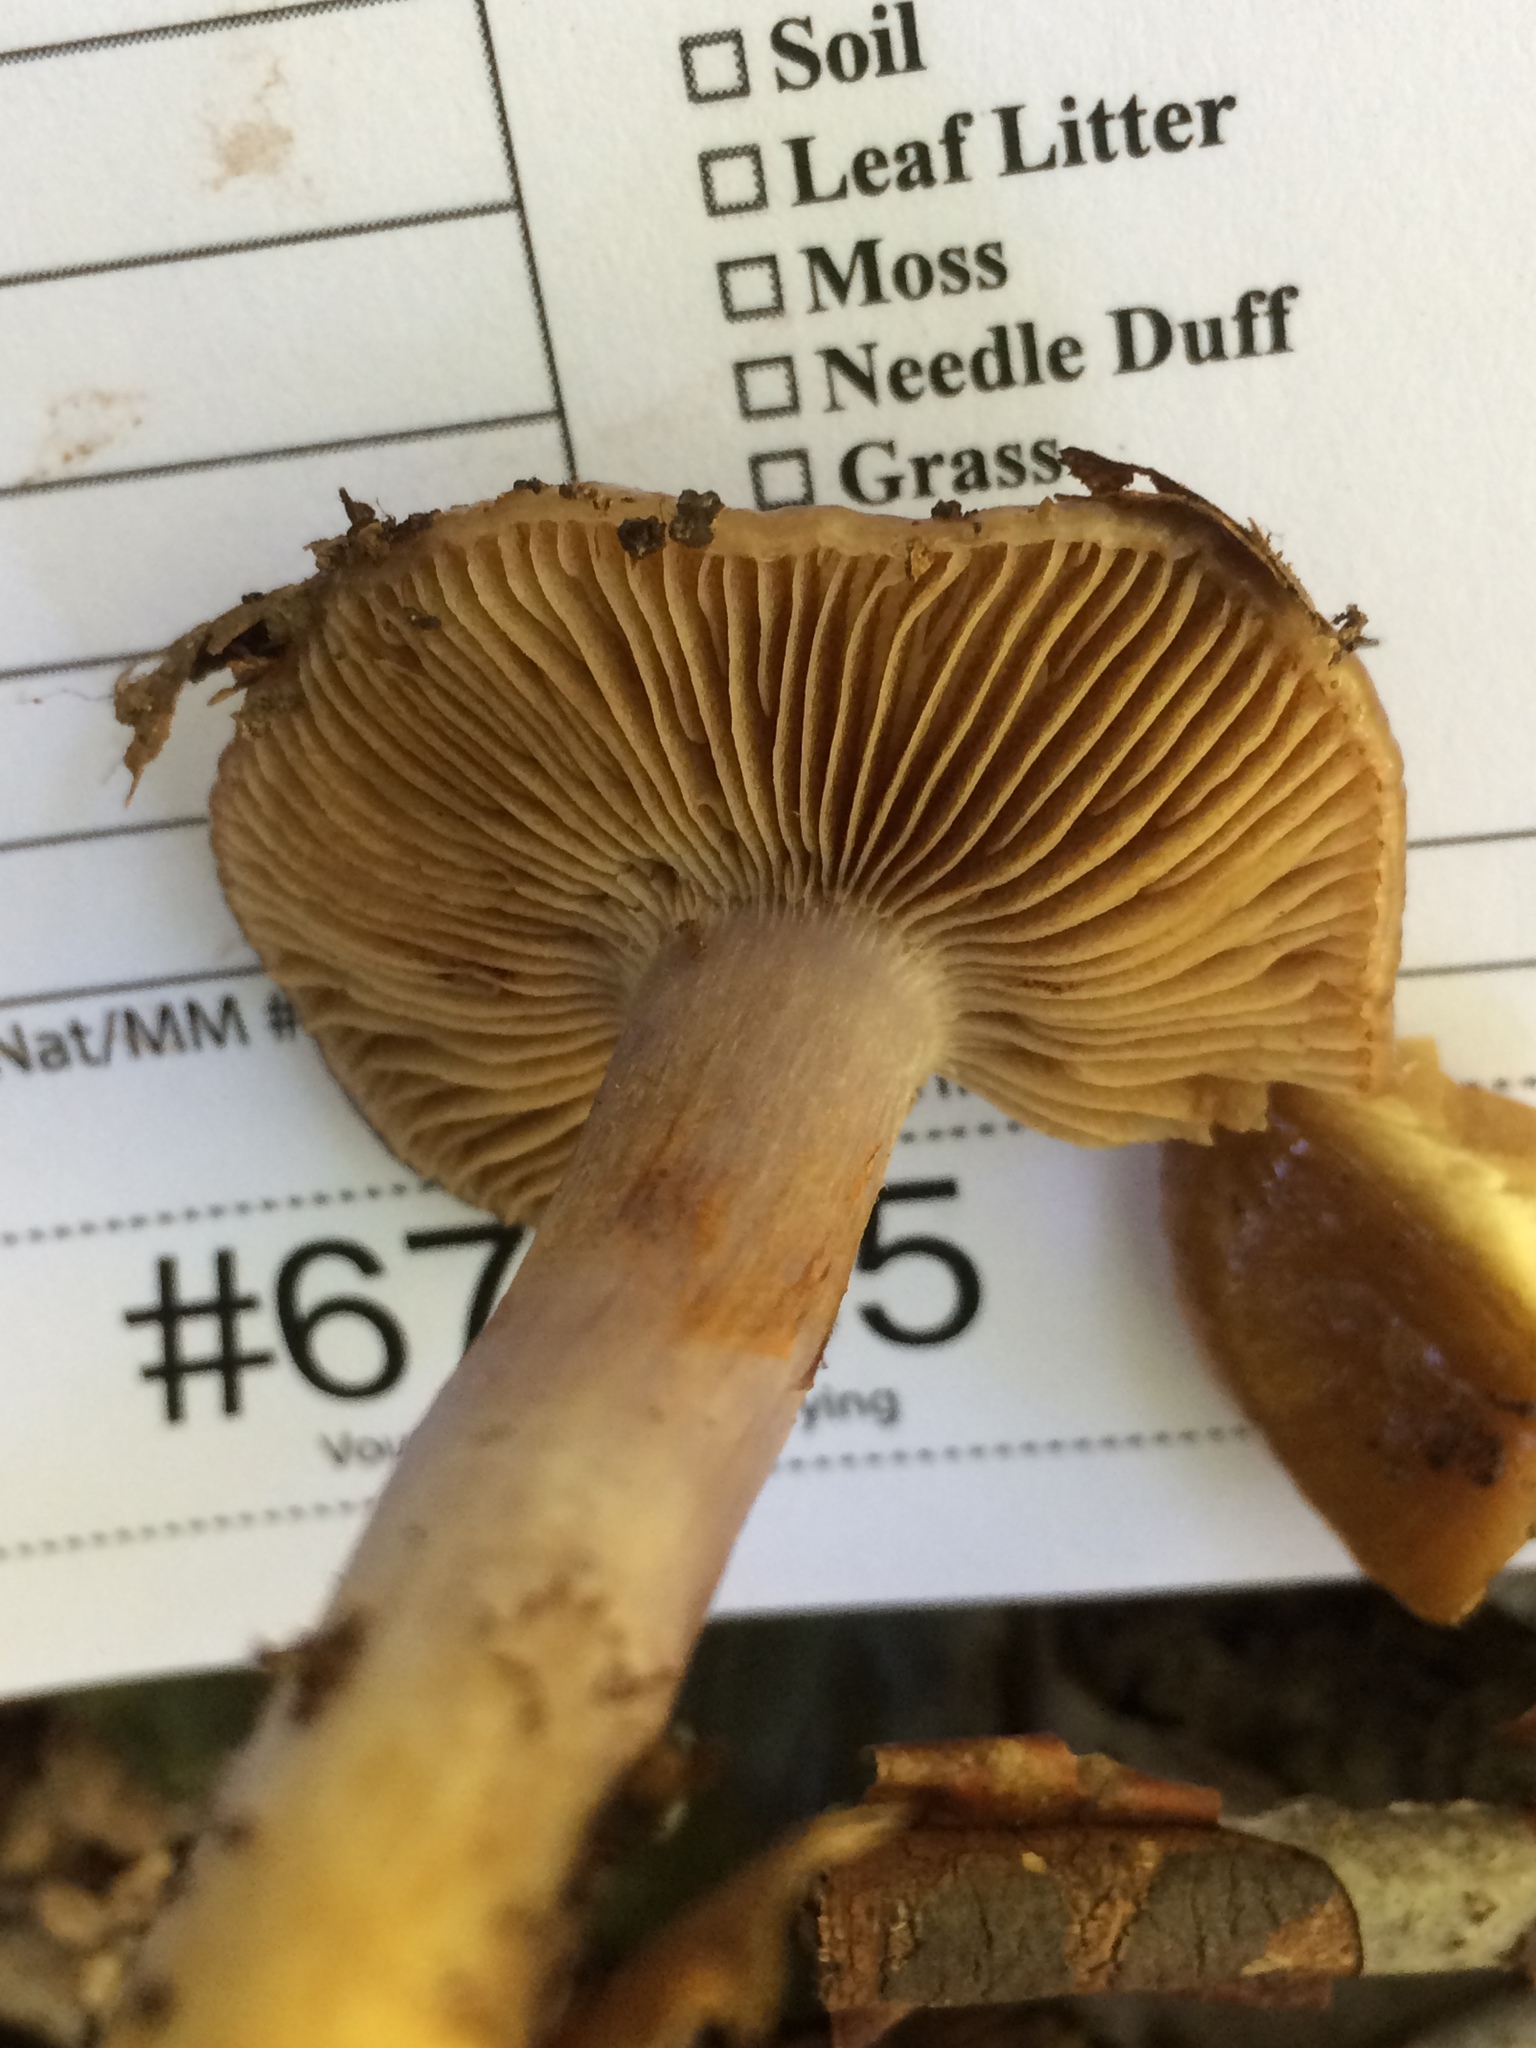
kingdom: Fungi
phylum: Basidiomycota
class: Agaricomycetes
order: Agaricales
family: Cortinariaceae
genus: Cortinarius
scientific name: Cortinarius alpinus
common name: Mountain webcap
